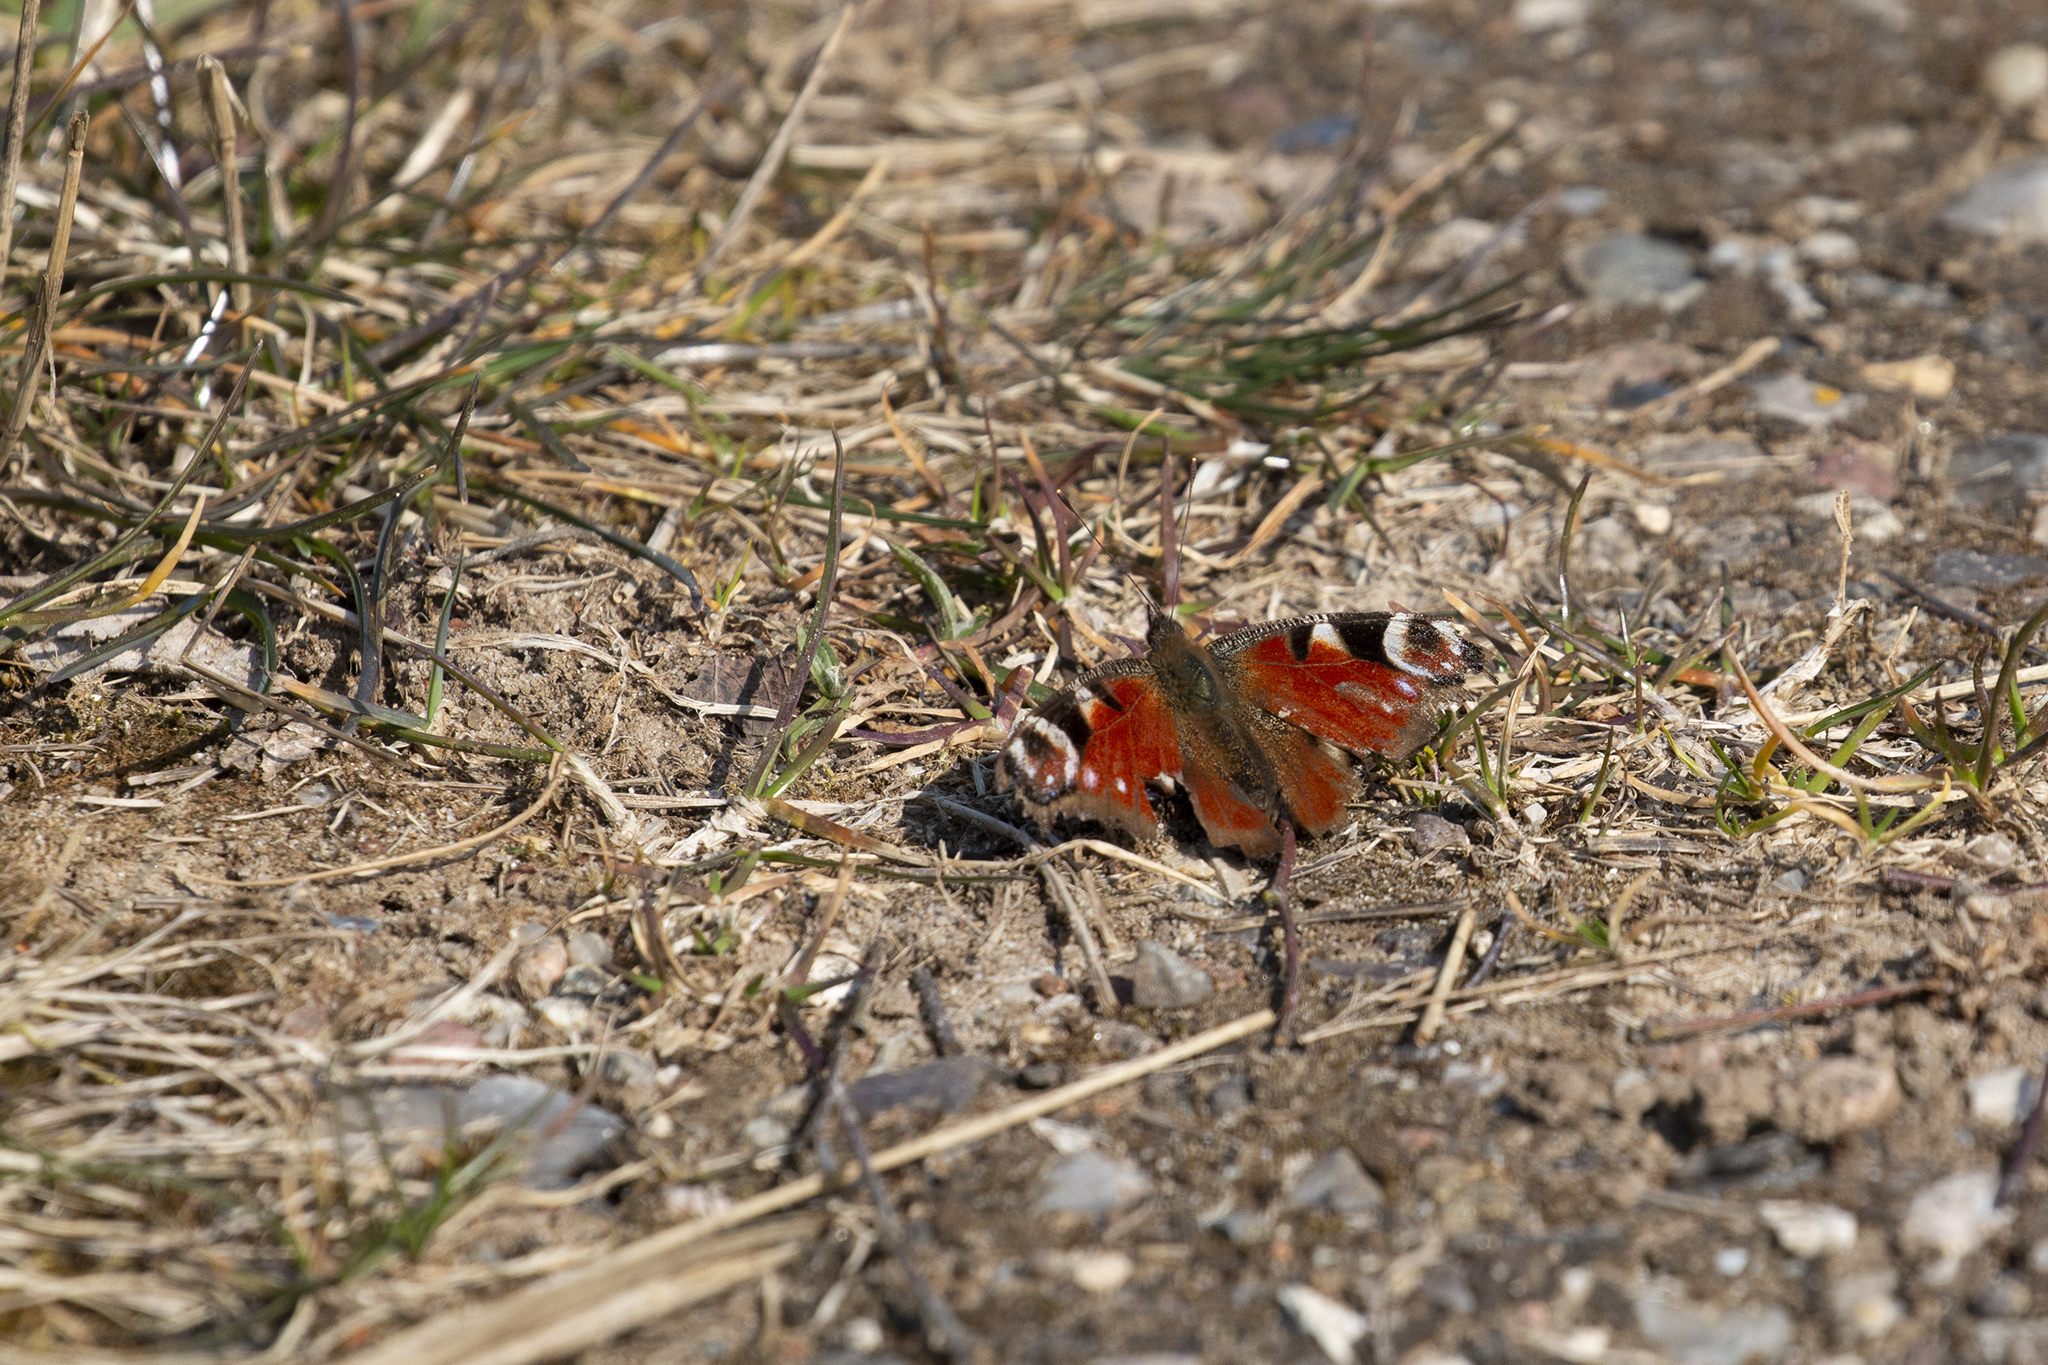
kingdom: Animalia
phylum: Arthropoda
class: Insecta
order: Lepidoptera
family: Nymphalidae
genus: Aglais
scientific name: Aglais io
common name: Peacock
